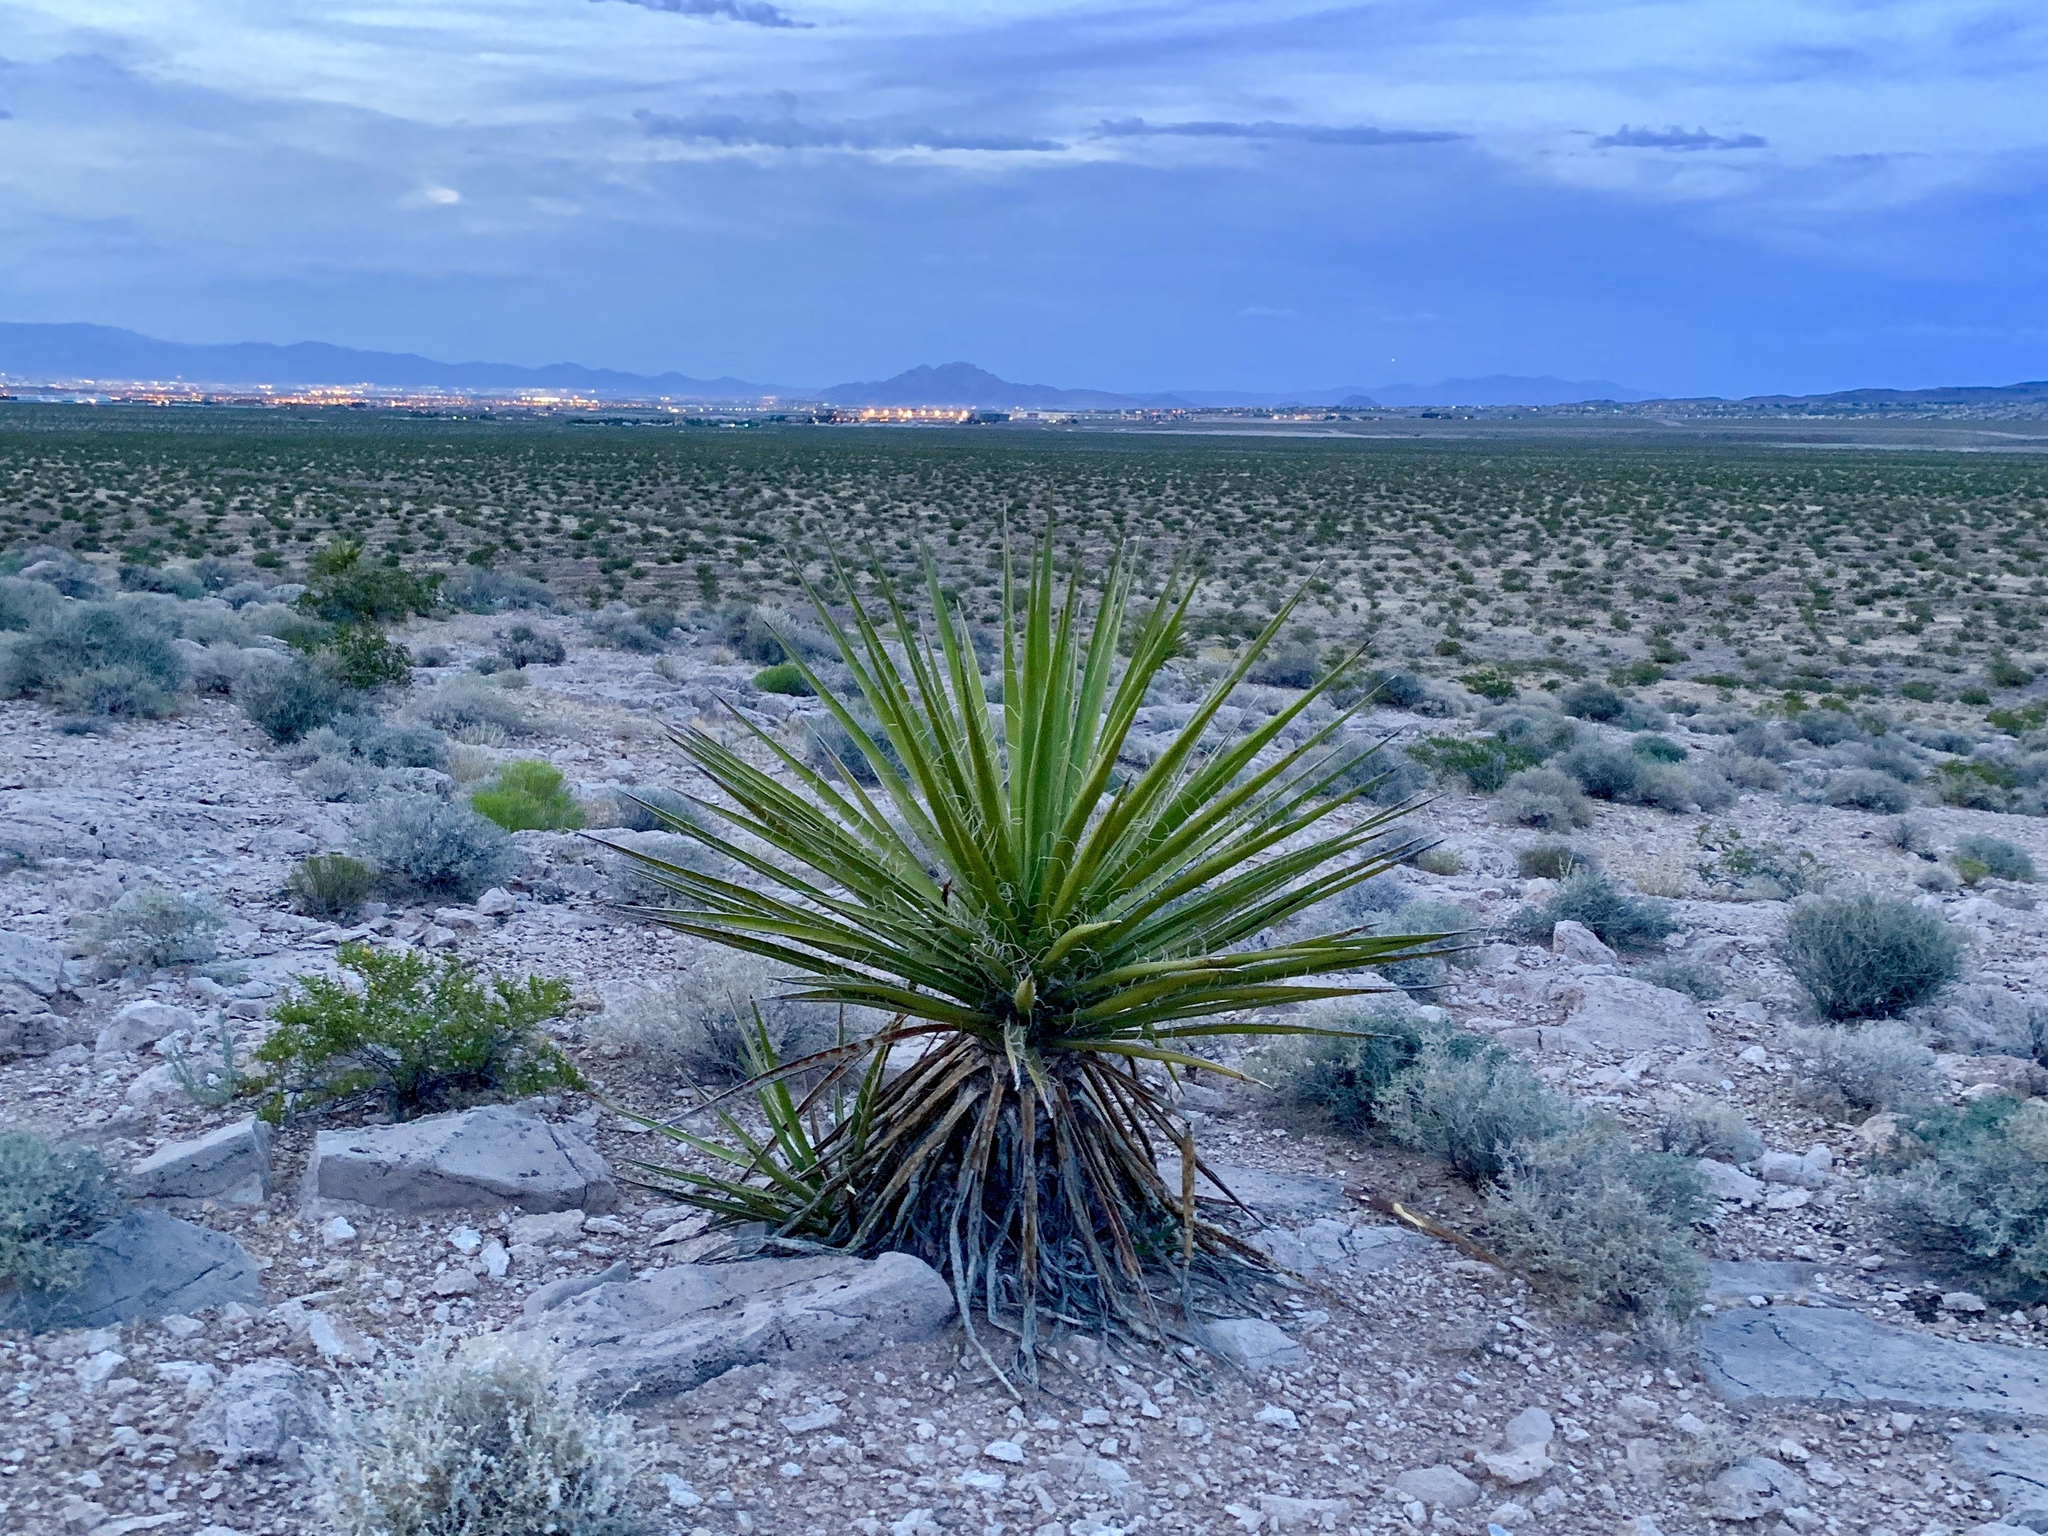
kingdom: Plantae
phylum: Tracheophyta
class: Liliopsida
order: Asparagales
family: Asparagaceae
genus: Yucca
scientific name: Yucca schidigera
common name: Mojave yucca
